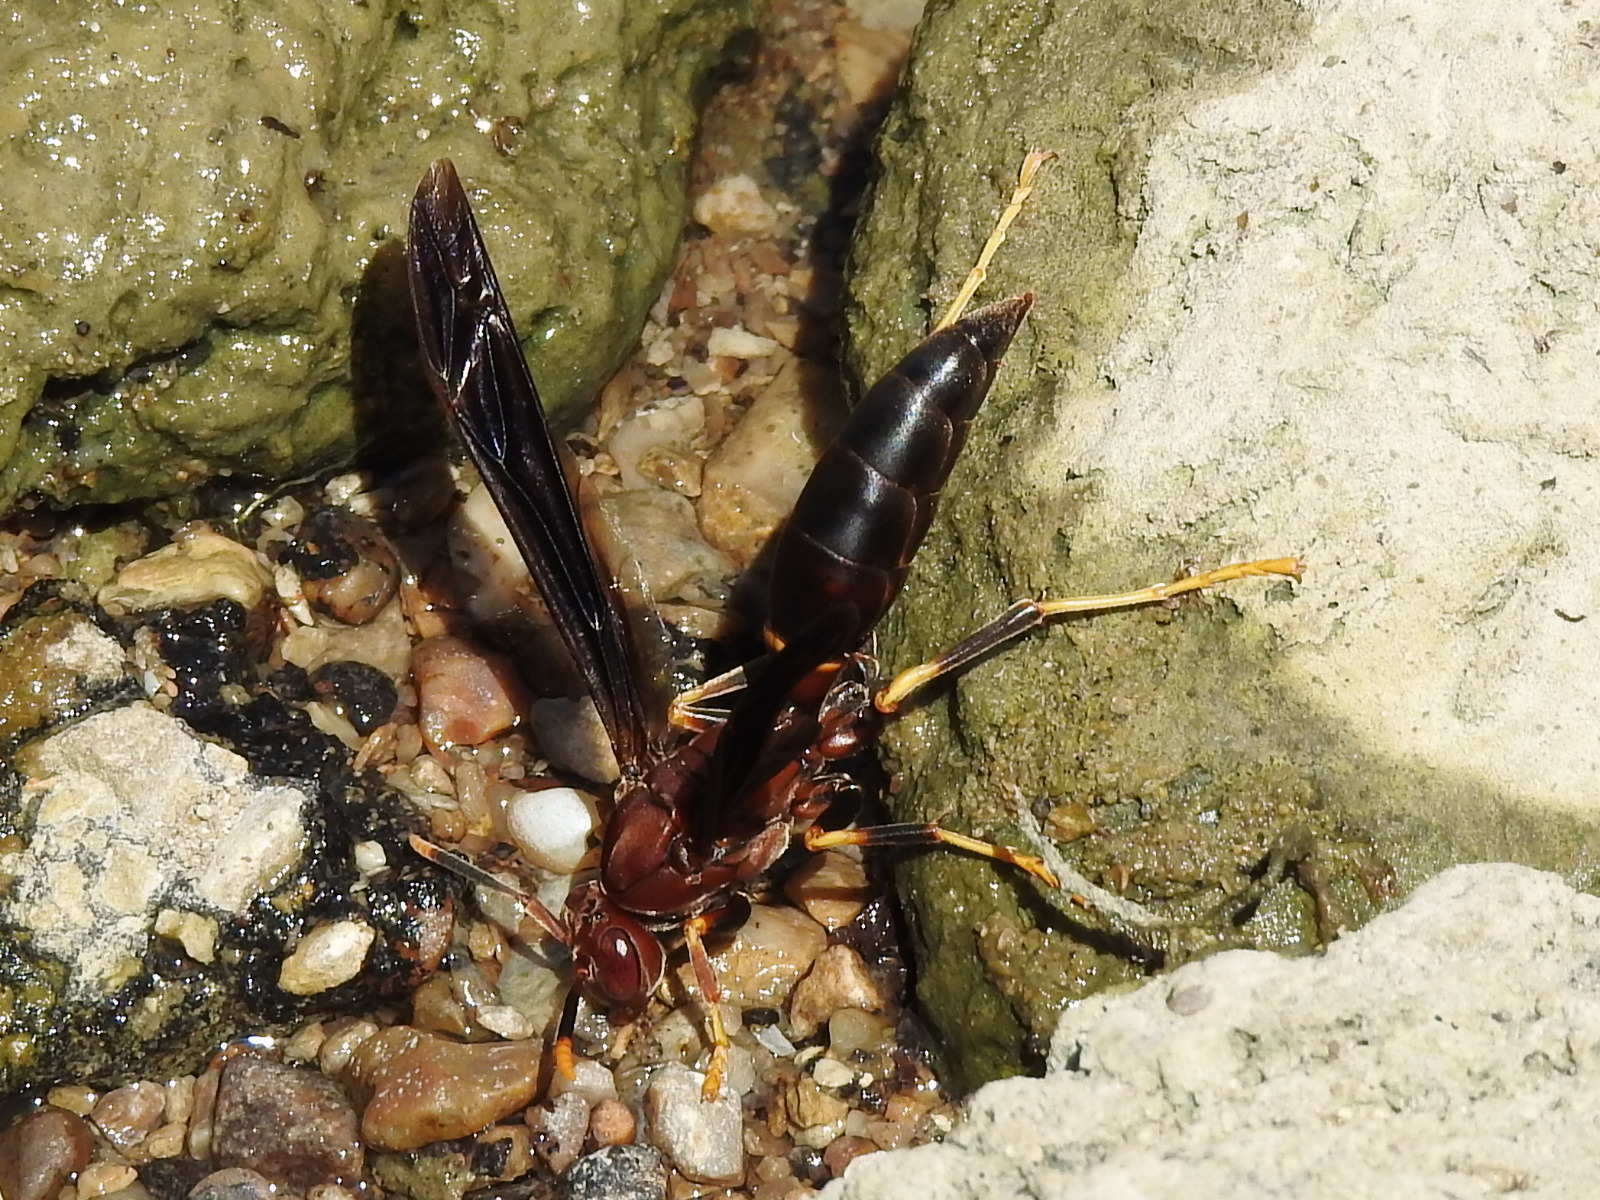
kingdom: Animalia
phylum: Arthropoda
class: Insecta
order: Hymenoptera
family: Eumenidae
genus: Polistes
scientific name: Polistes annularis
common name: Ringed paper wasp
